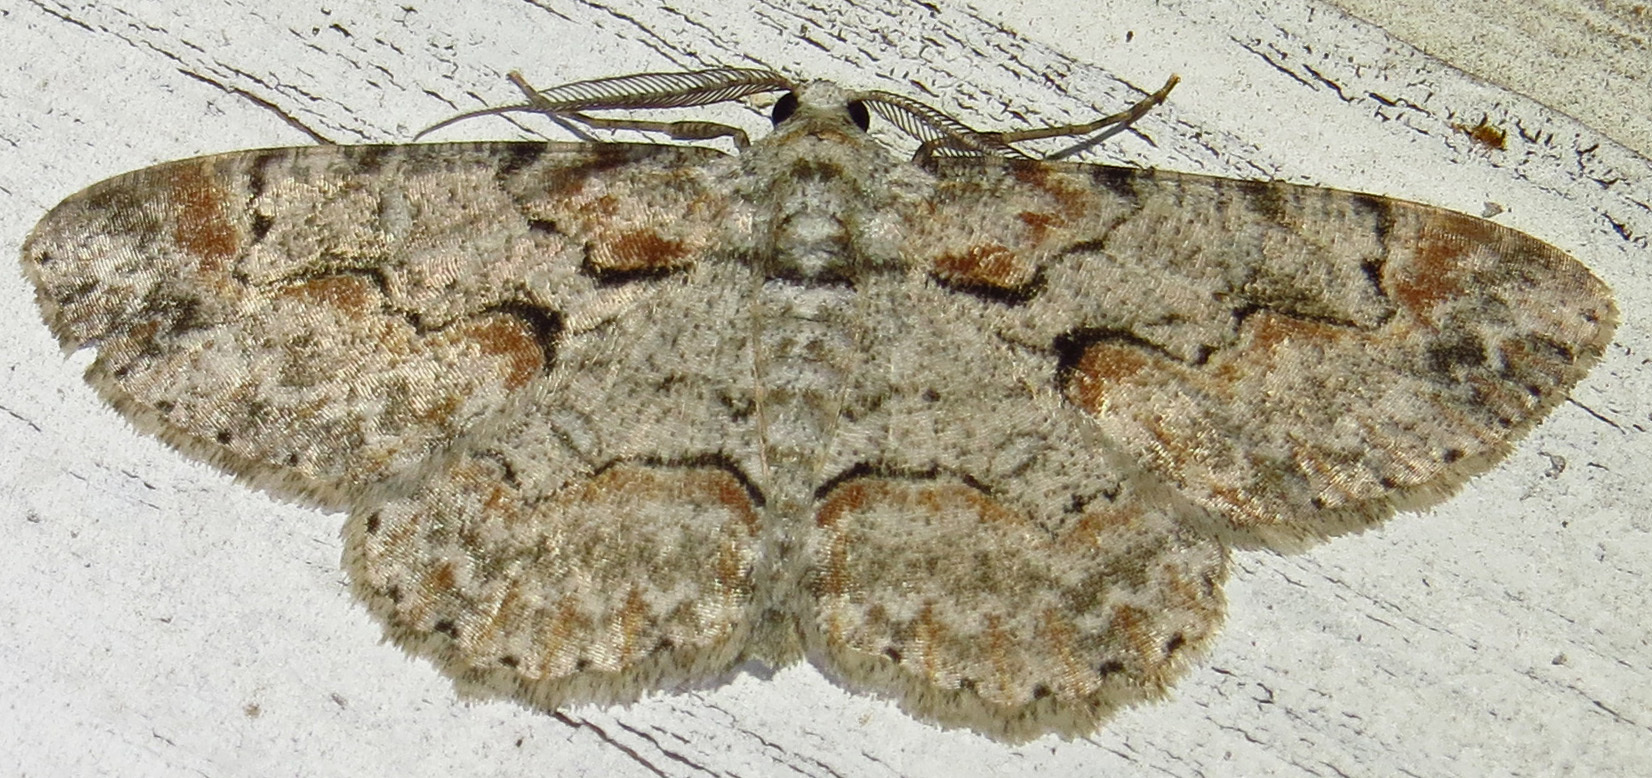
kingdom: Animalia
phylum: Arthropoda
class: Insecta
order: Lepidoptera
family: Geometridae
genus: Iridopsis
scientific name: Iridopsis defectaria
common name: Brown-shaded gray
